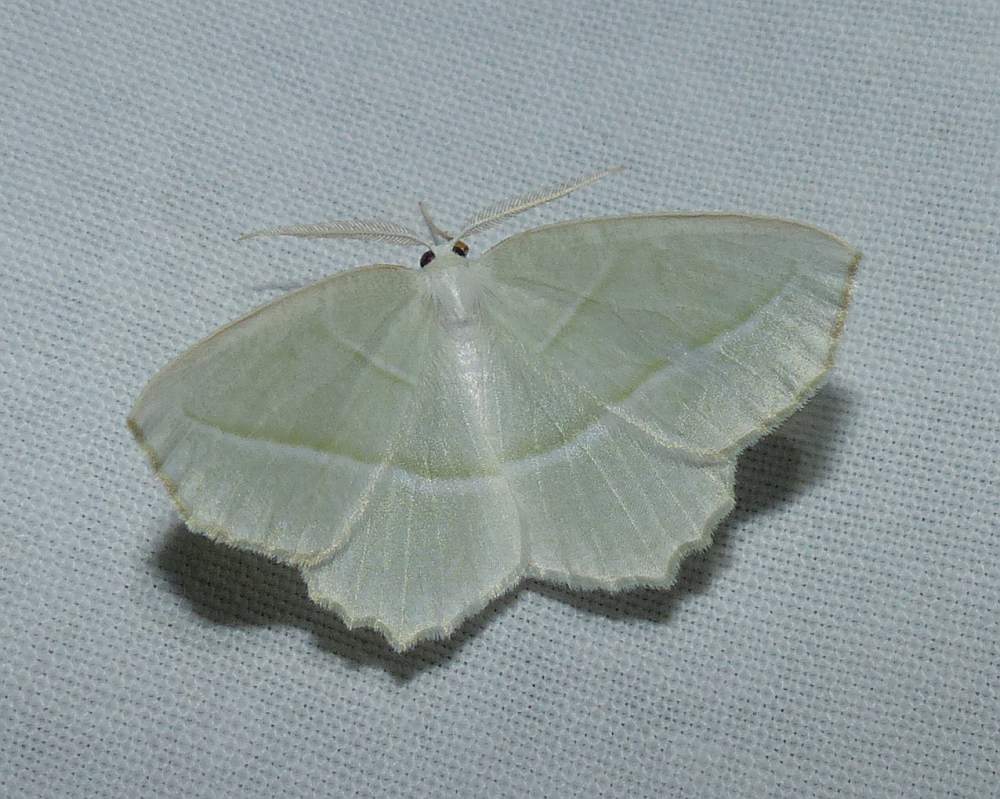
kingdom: Animalia
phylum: Arthropoda
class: Insecta
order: Lepidoptera
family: Geometridae
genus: Campaea
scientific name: Campaea perlata
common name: Fringed looper
